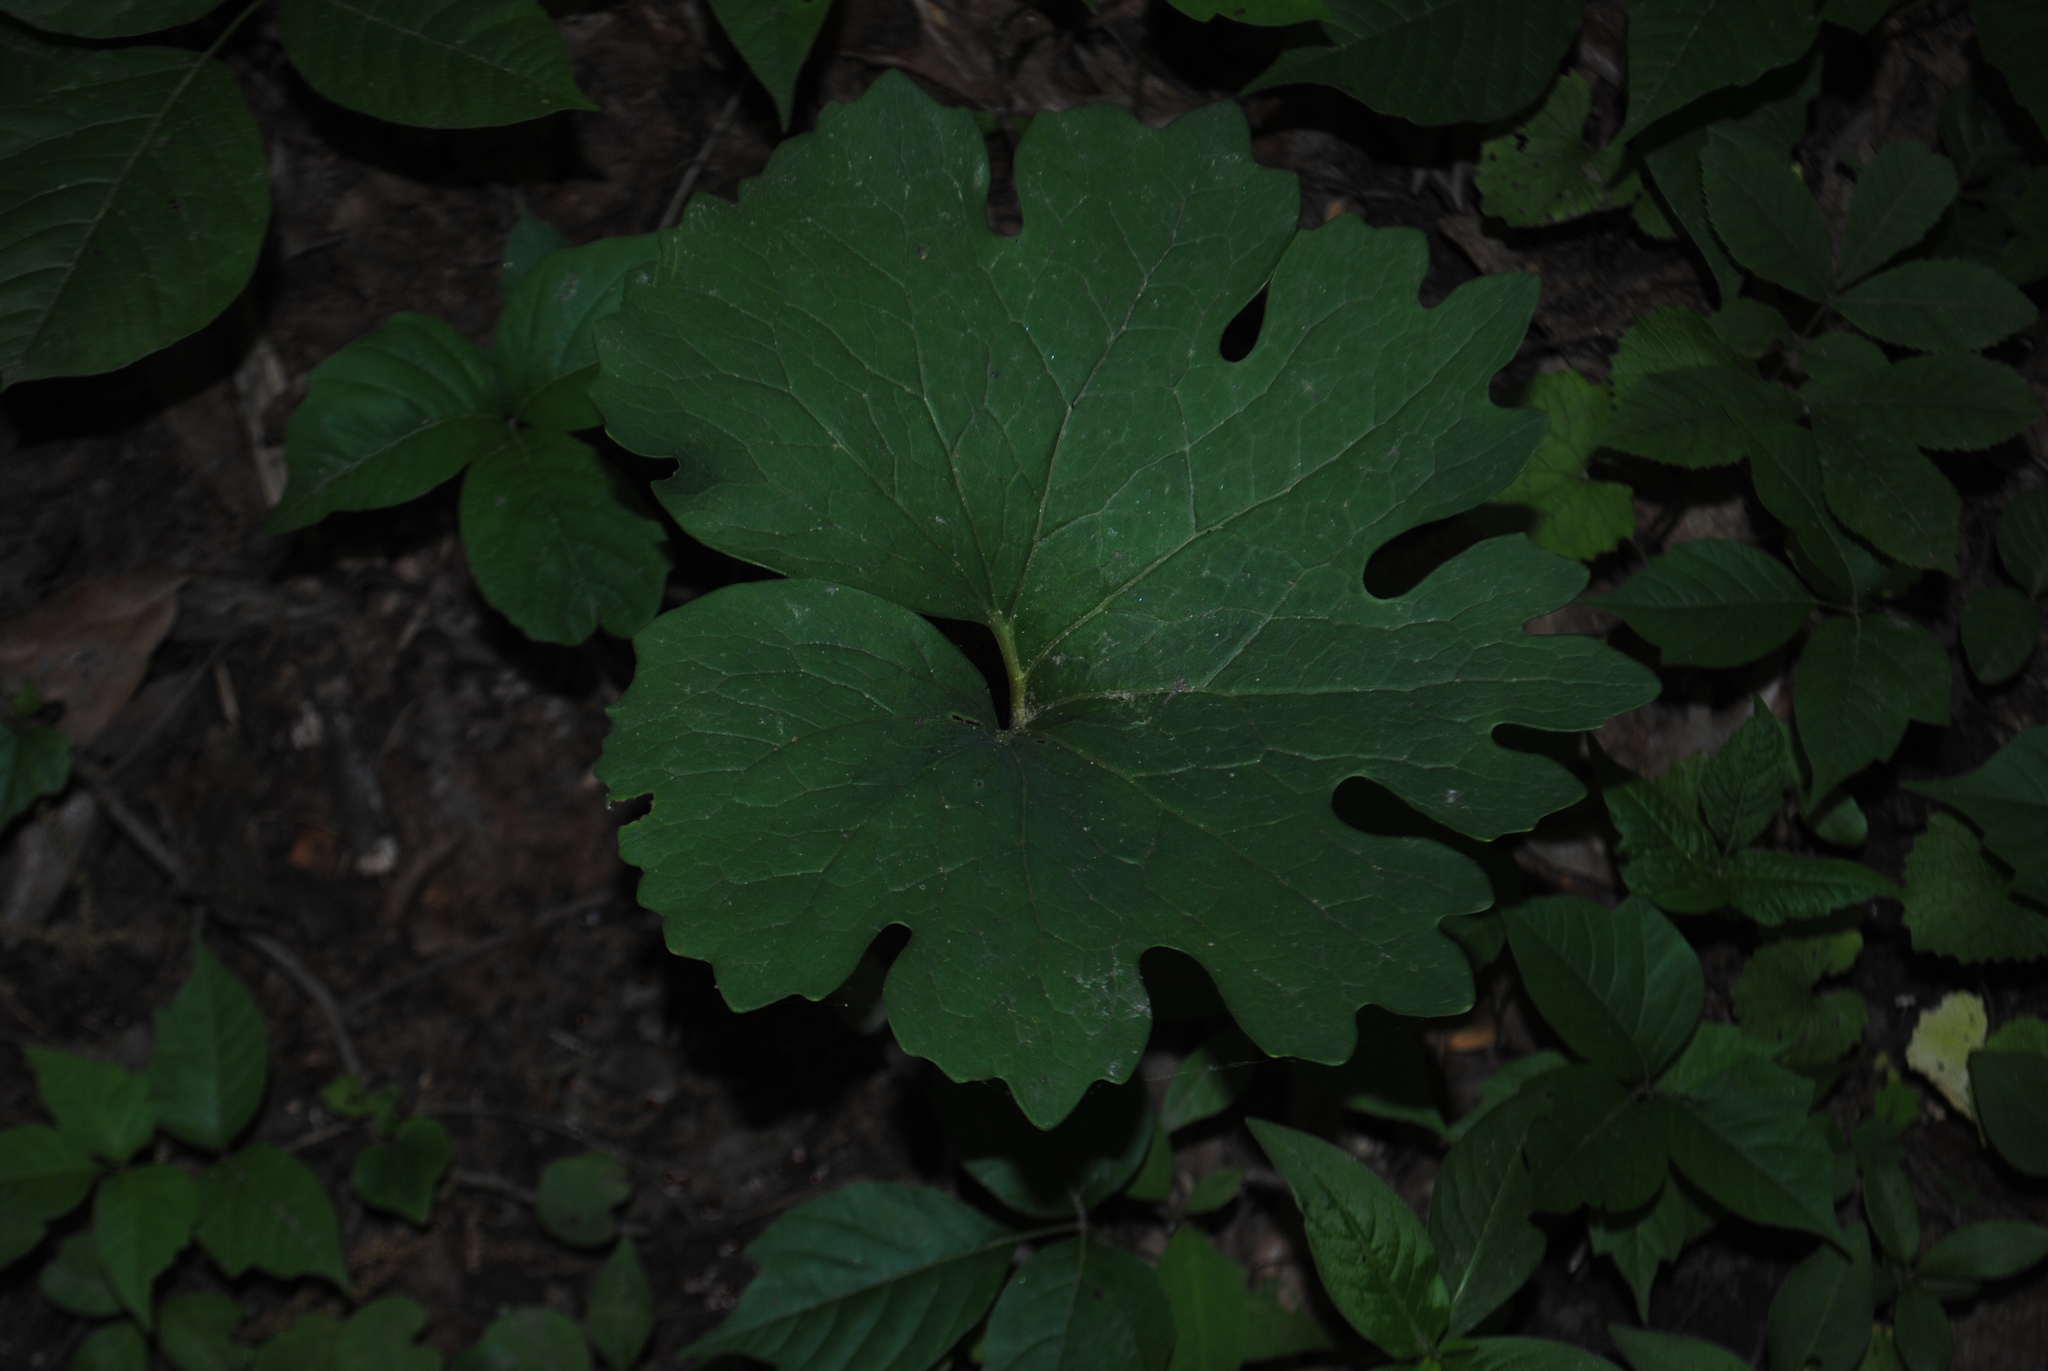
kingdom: Plantae
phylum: Tracheophyta
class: Magnoliopsida
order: Ranunculales
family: Papaveraceae
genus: Sanguinaria
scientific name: Sanguinaria canadensis
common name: Bloodroot
